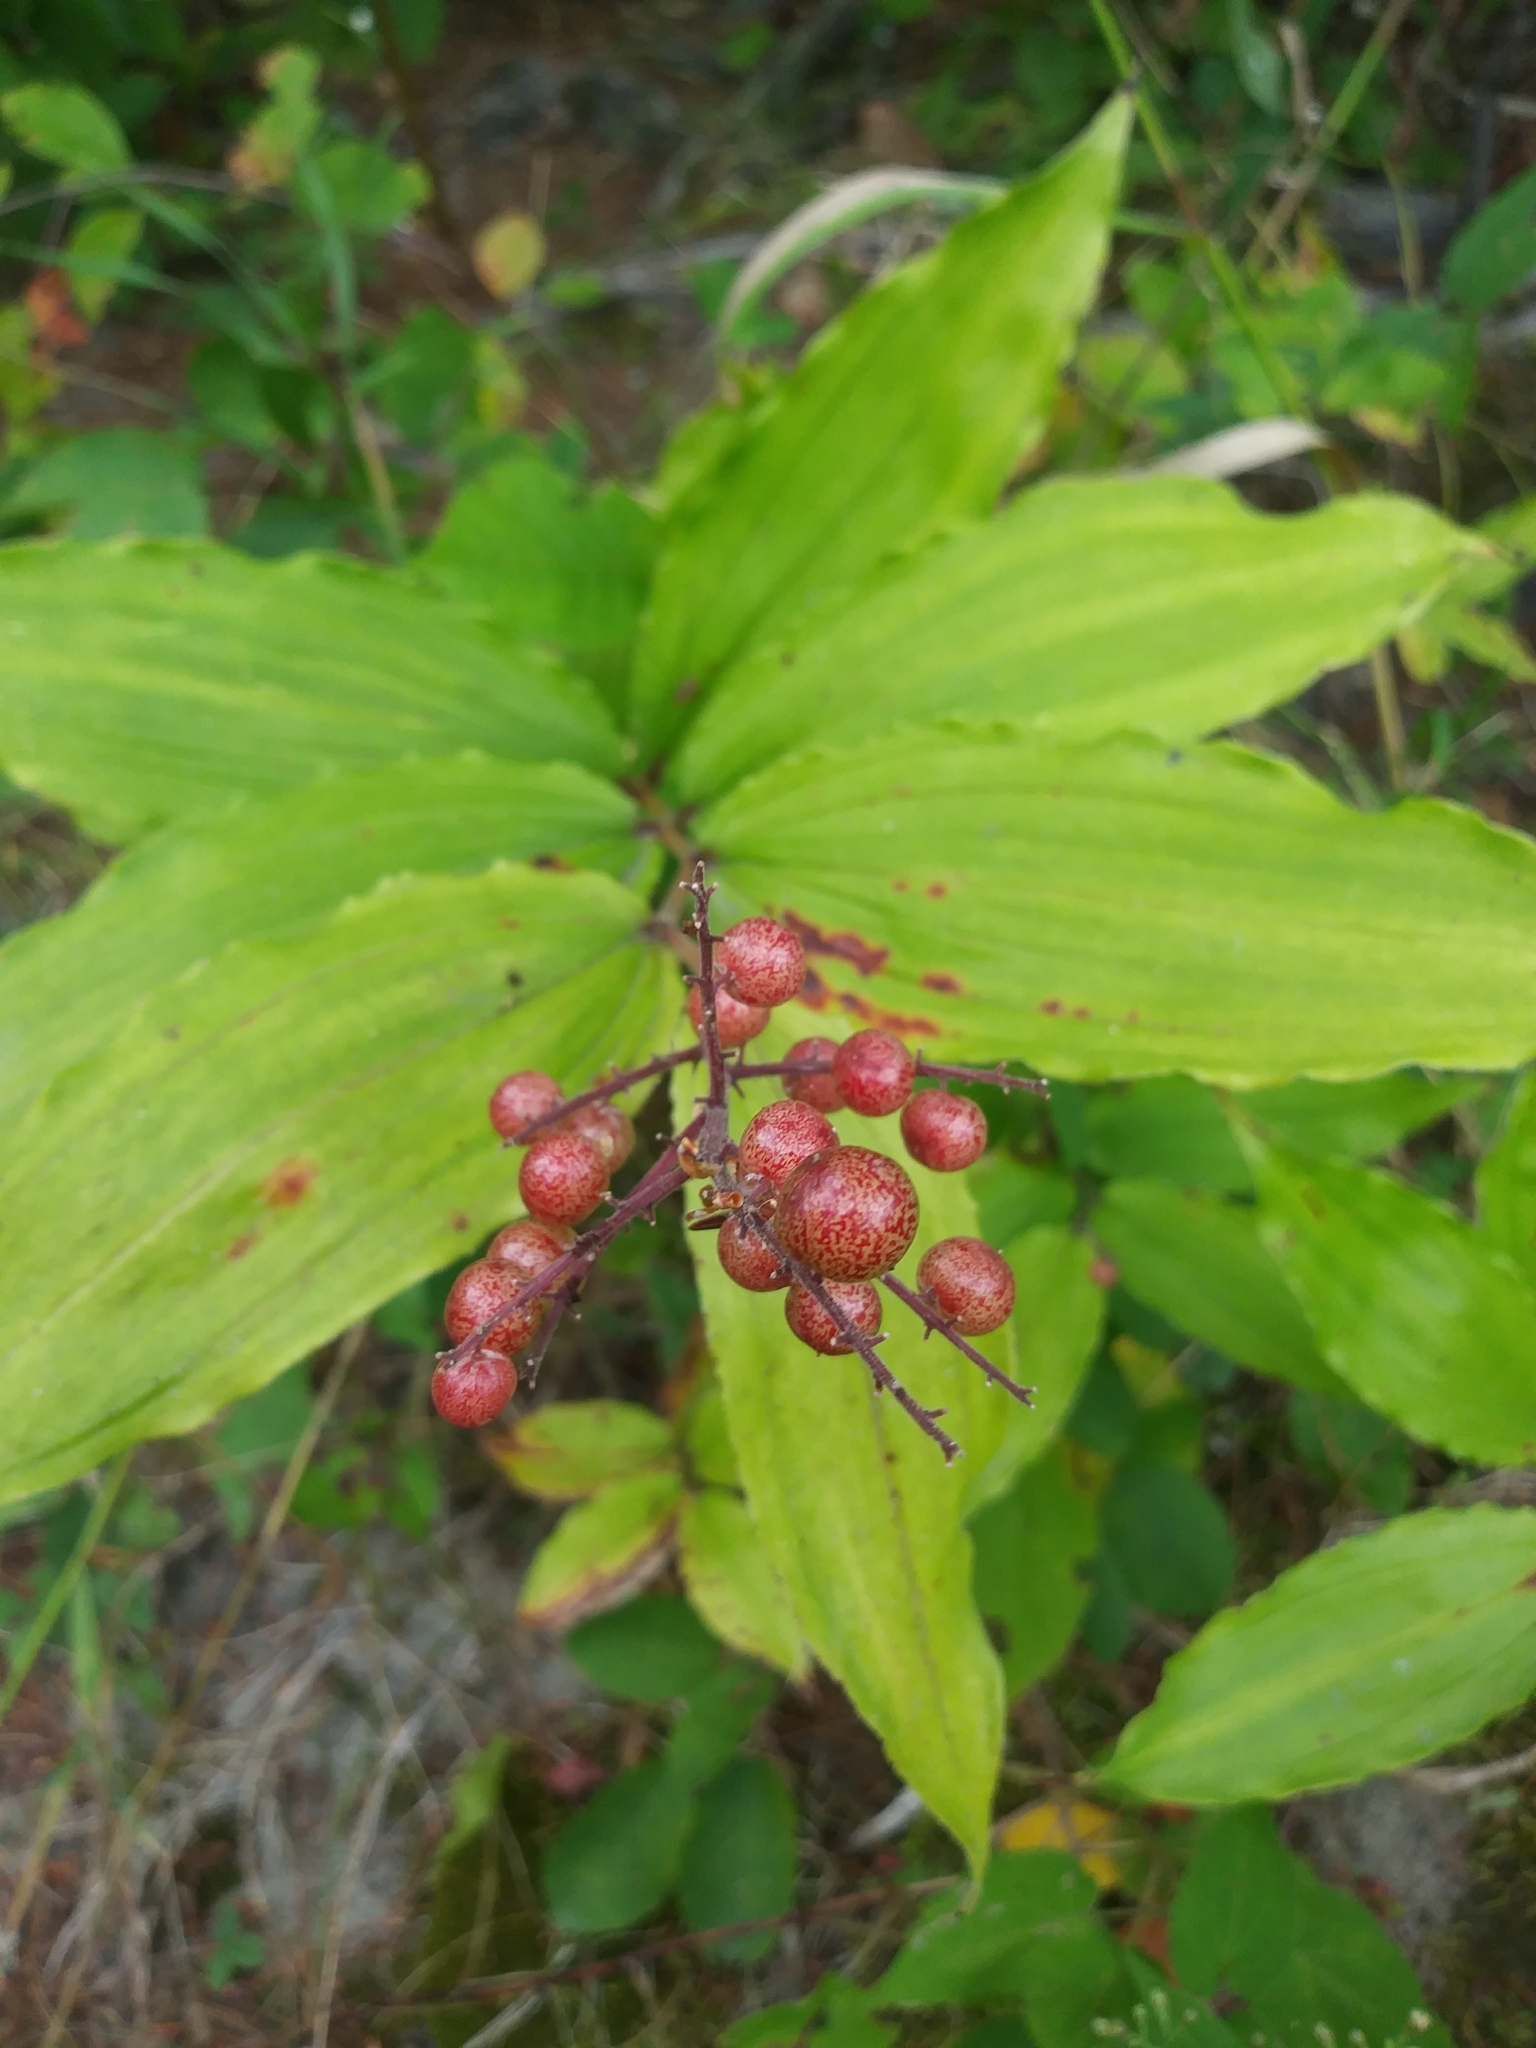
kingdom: Plantae
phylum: Tracheophyta
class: Liliopsida
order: Asparagales
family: Asparagaceae
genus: Maianthemum
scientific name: Maianthemum racemosum
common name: False spikenard
